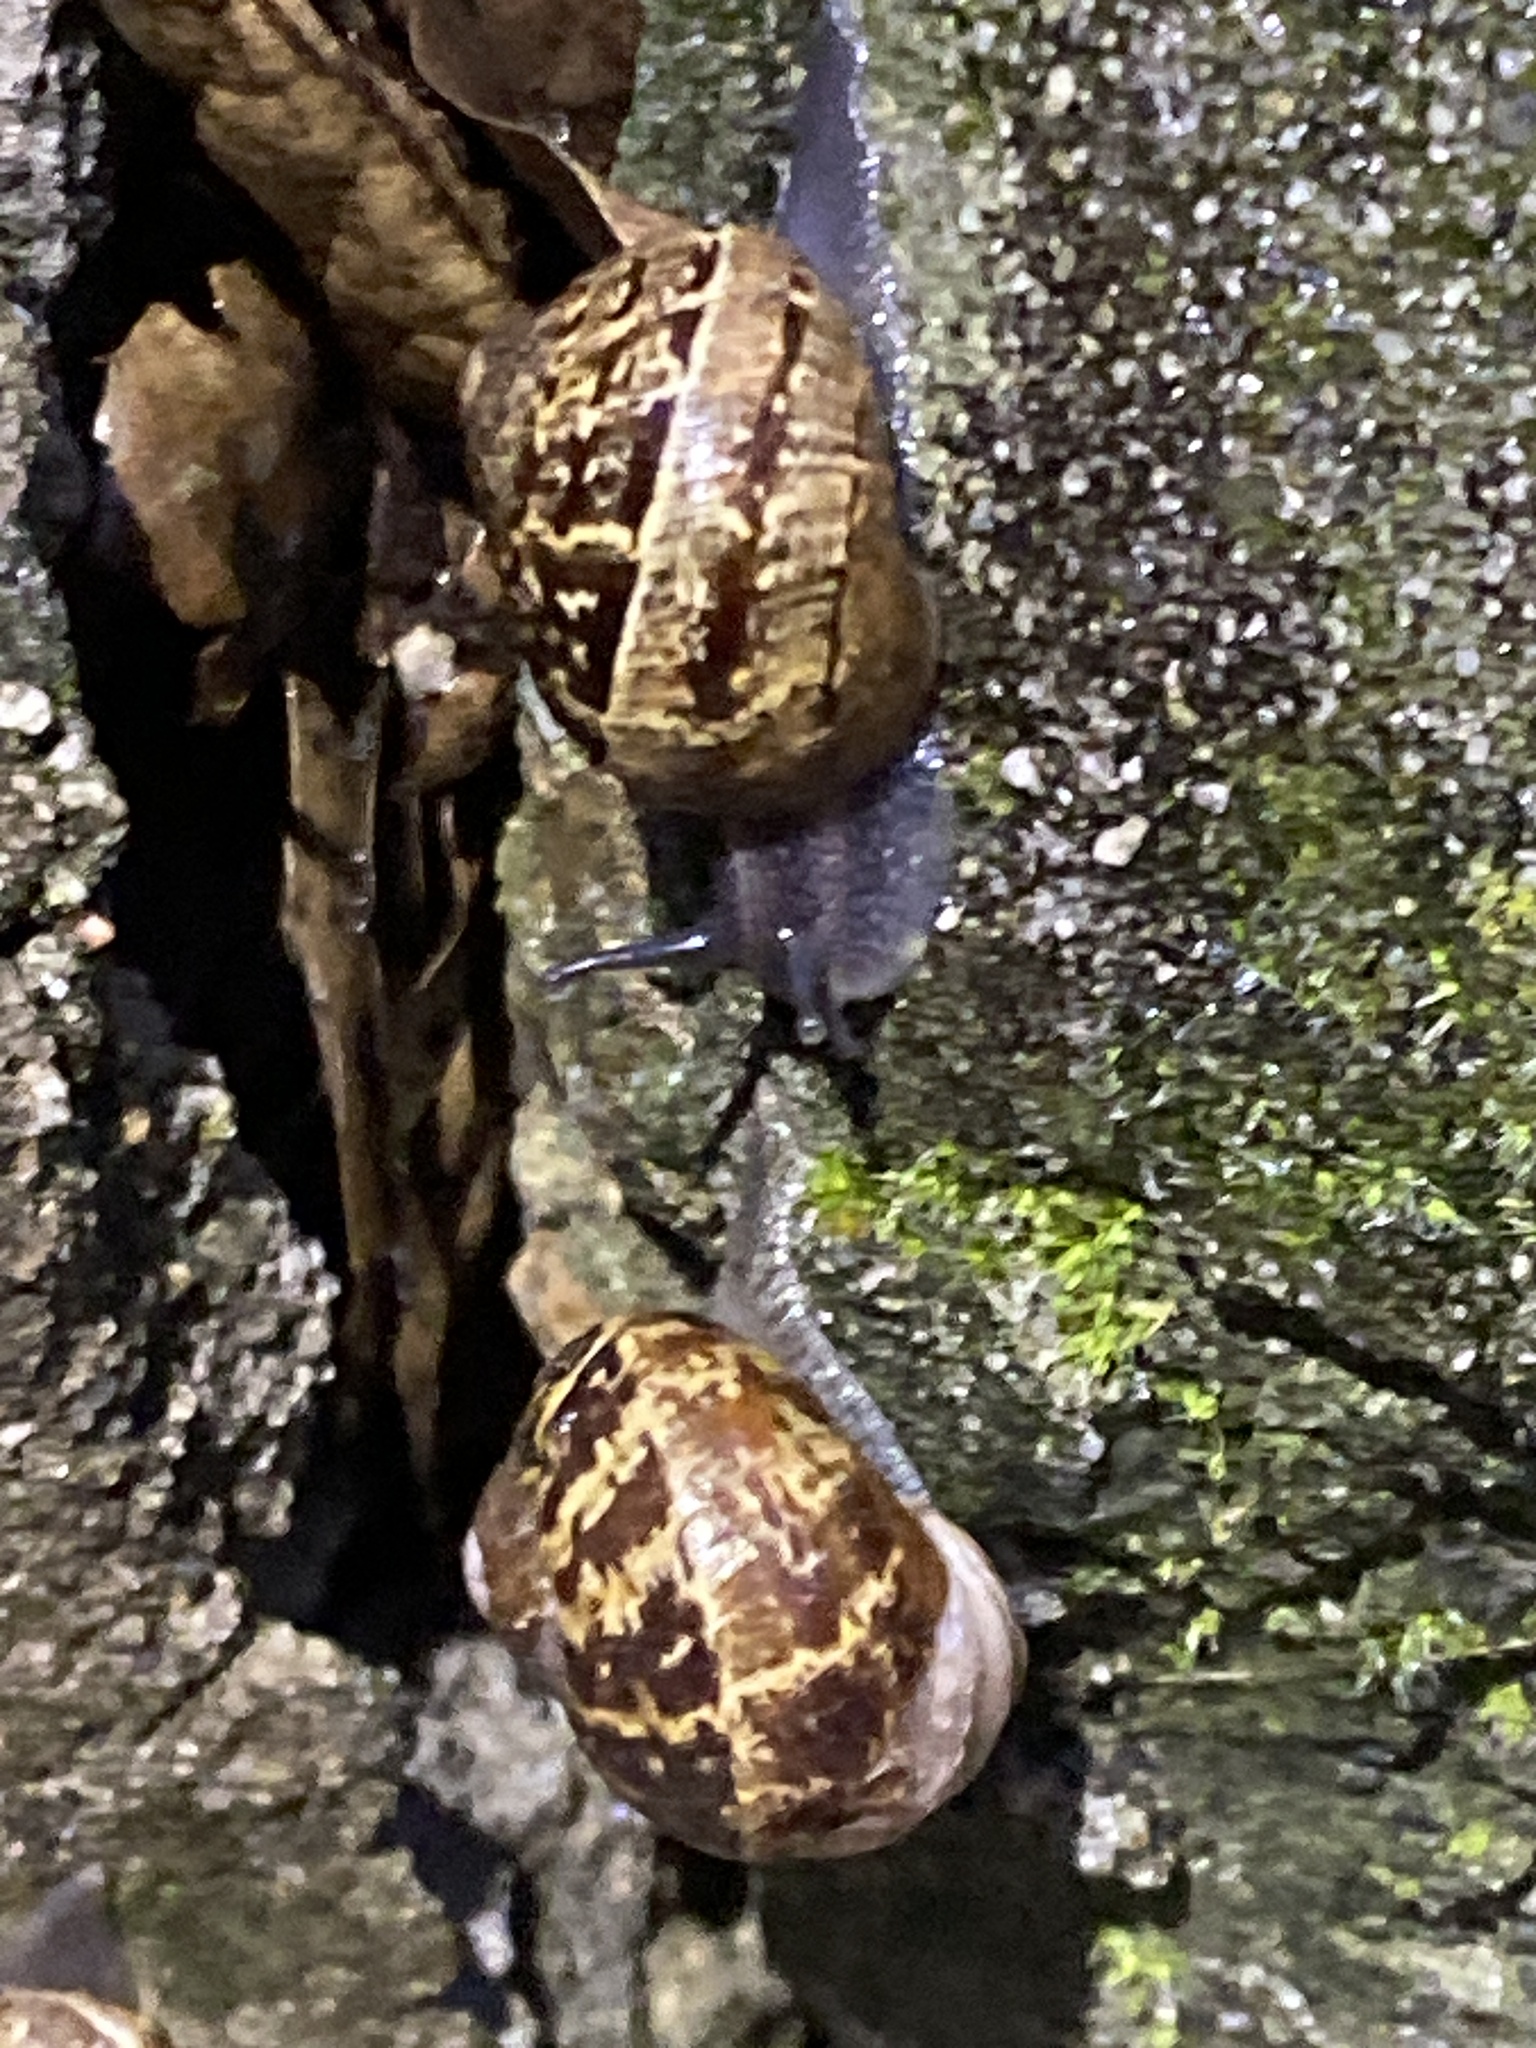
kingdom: Animalia
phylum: Mollusca
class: Gastropoda
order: Stylommatophora
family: Helicidae
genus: Cornu
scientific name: Cornu aspersum
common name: Brown garden snail
